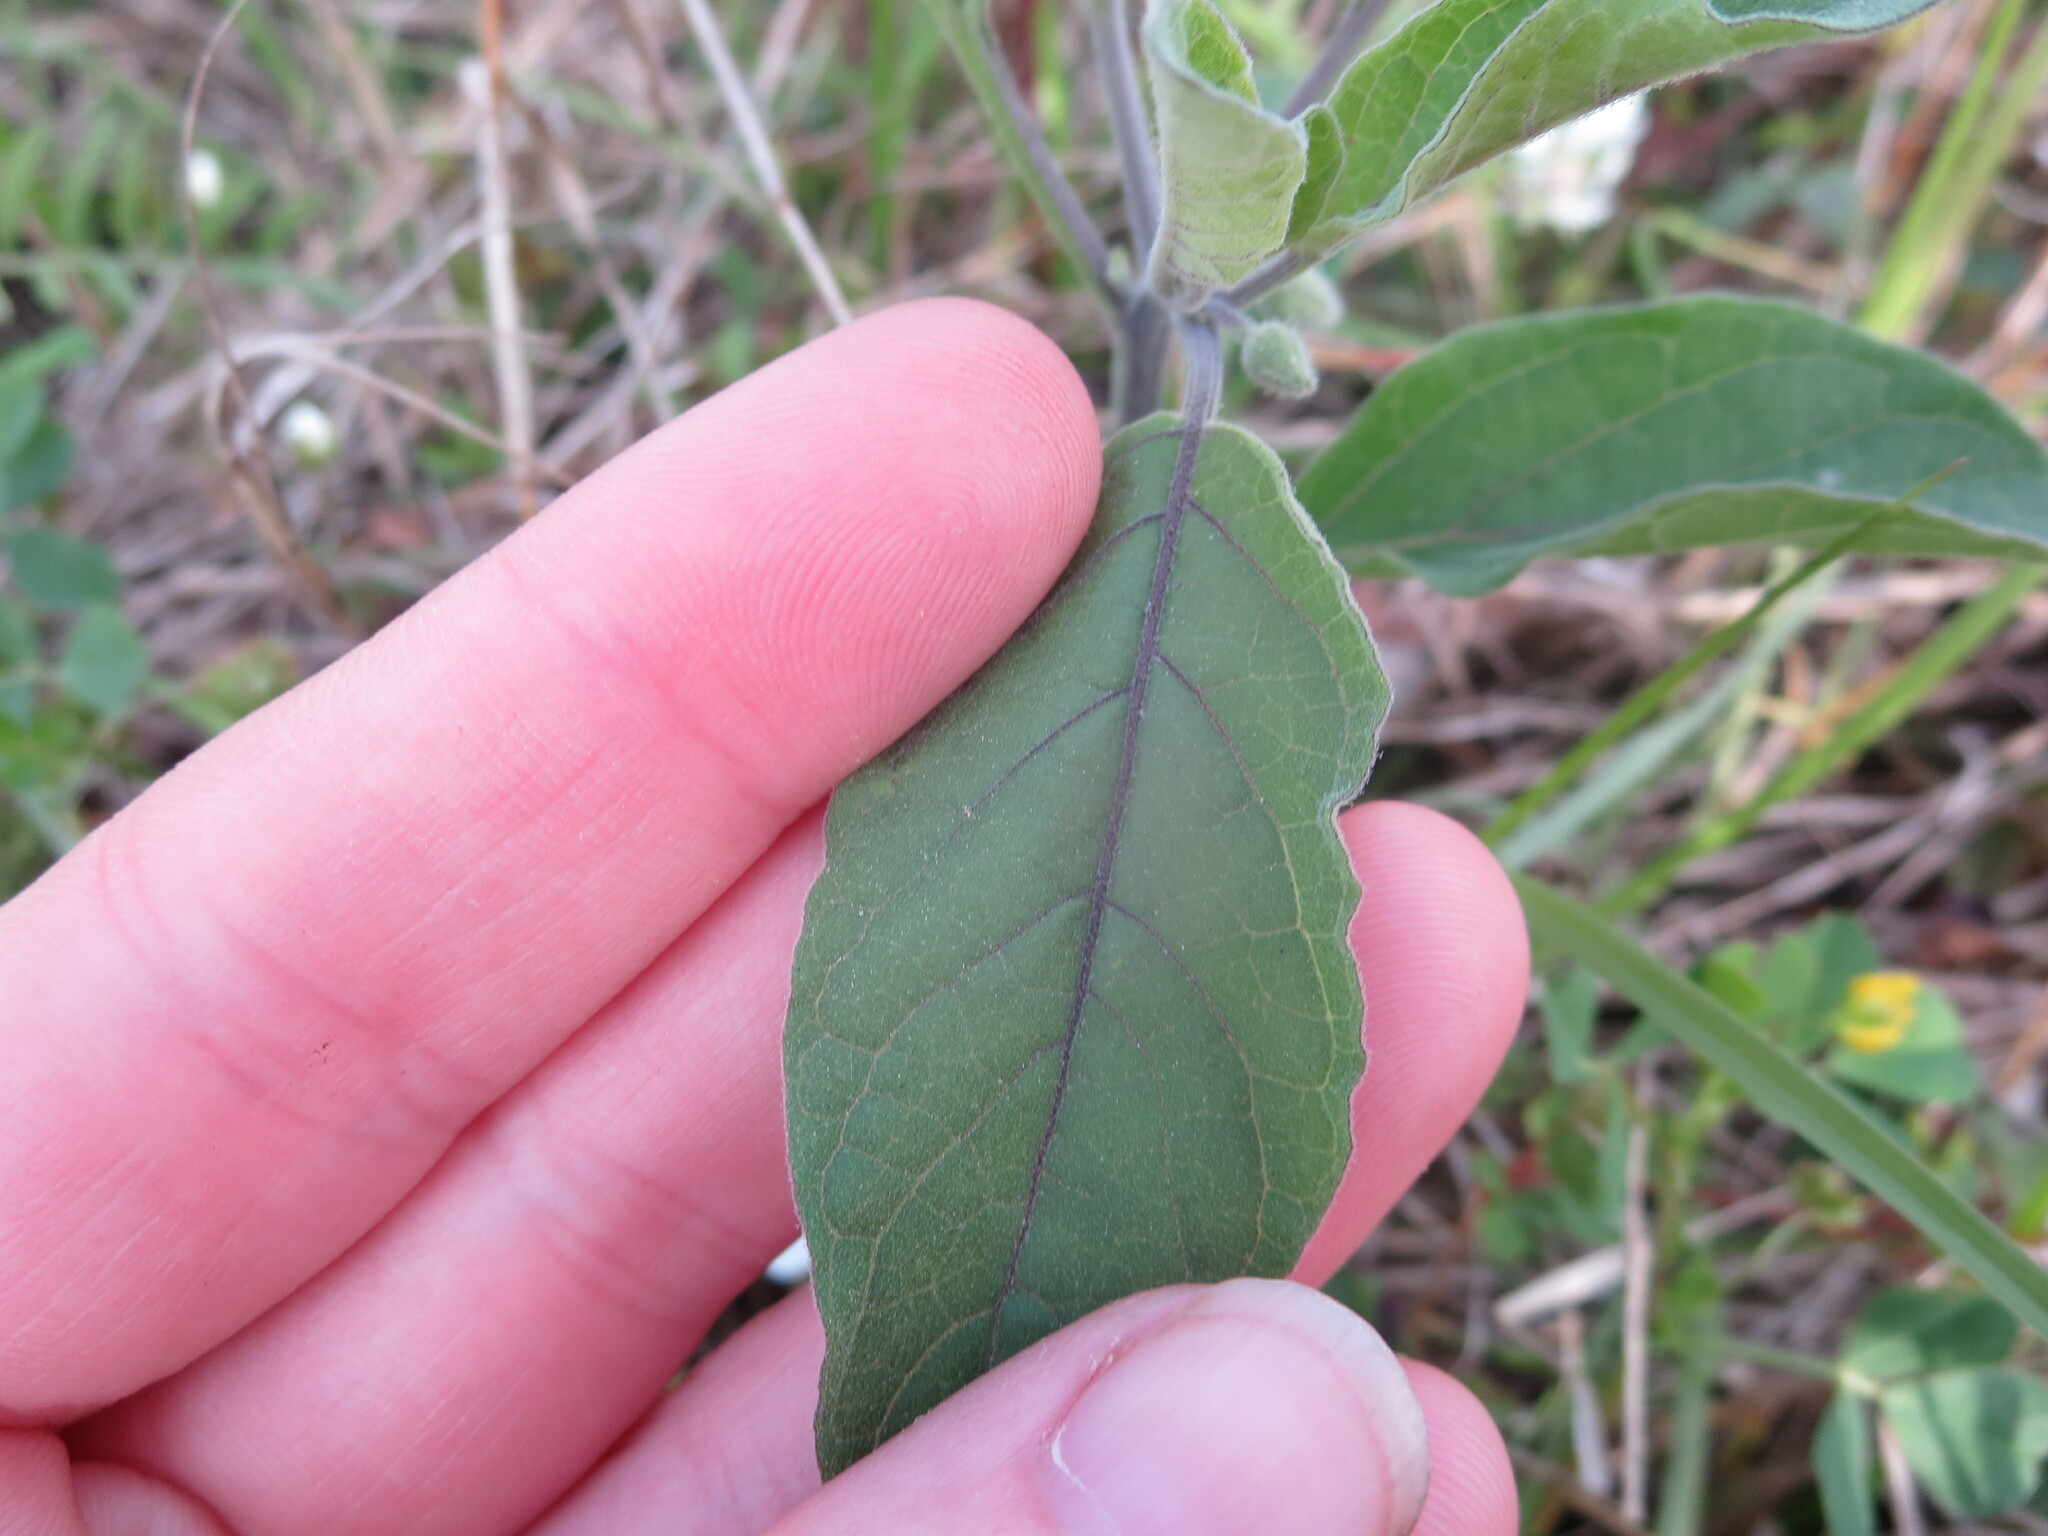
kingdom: Plantae
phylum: Tracheophyta
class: Magnoliopsida
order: Solanales
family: Solanaceae
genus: Physalis
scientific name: Physalis walteri
